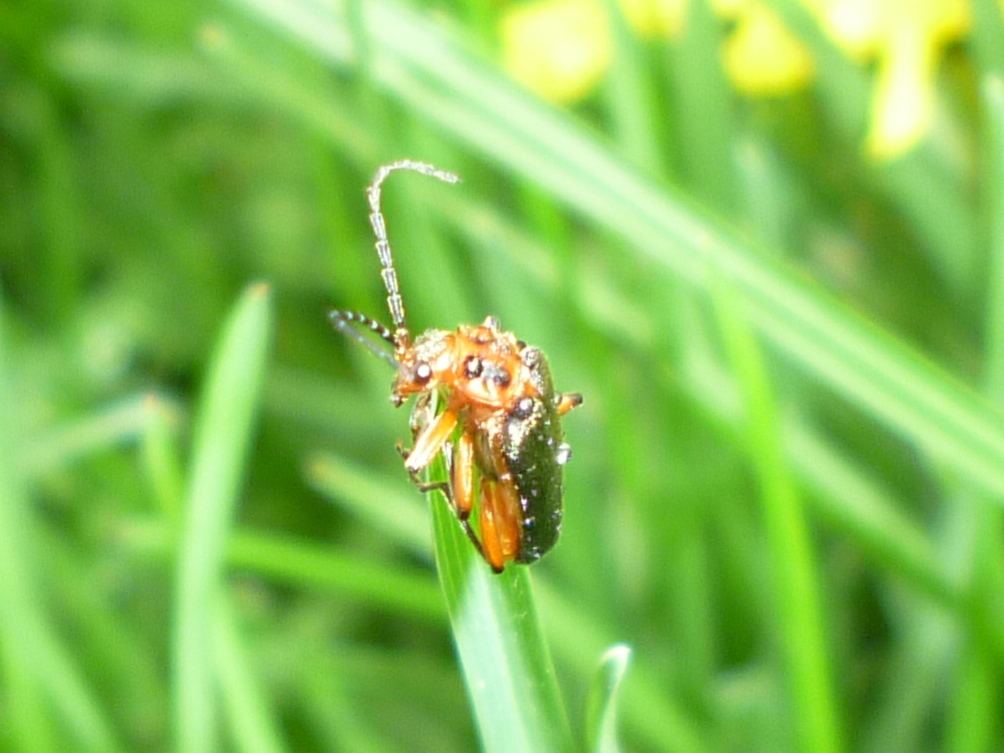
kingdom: Animalia
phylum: Arthropoda
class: Insecta
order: Coleoptera
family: Cantharidae
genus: Atalantycha
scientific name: Atalantycha bilineata
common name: Two-lined leatherwing
